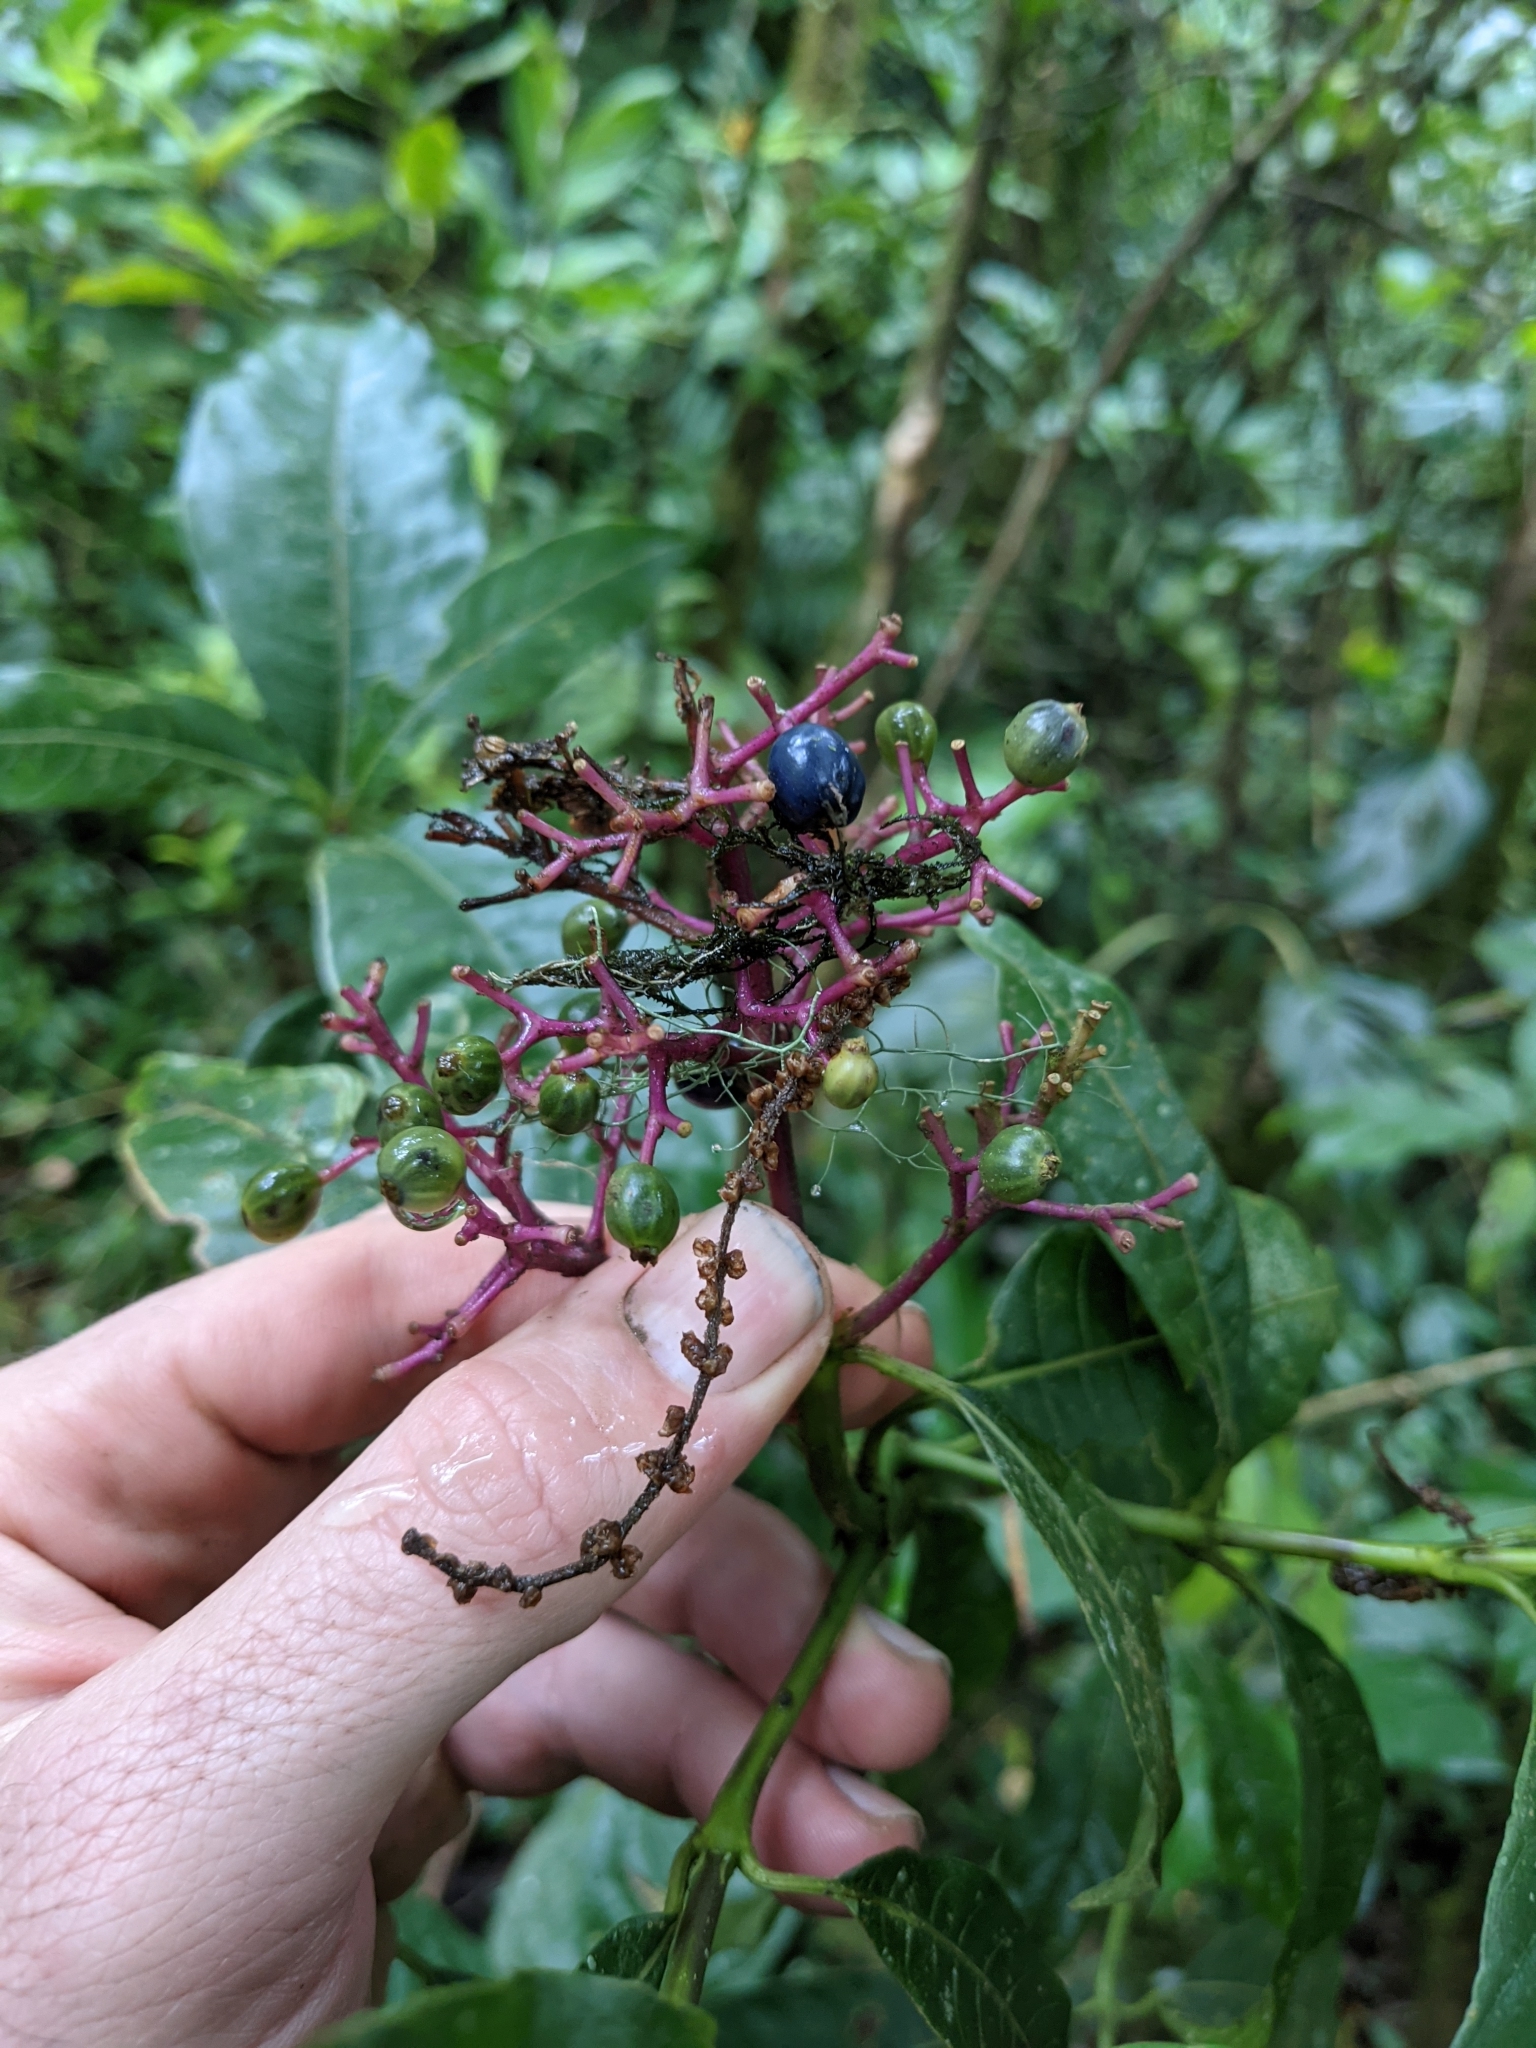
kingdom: Plantae
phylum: Tracheophyta
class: Magnoliopsida
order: Gentianales
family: Rubiaceae
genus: Palicourea
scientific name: Palicourea padifolia
